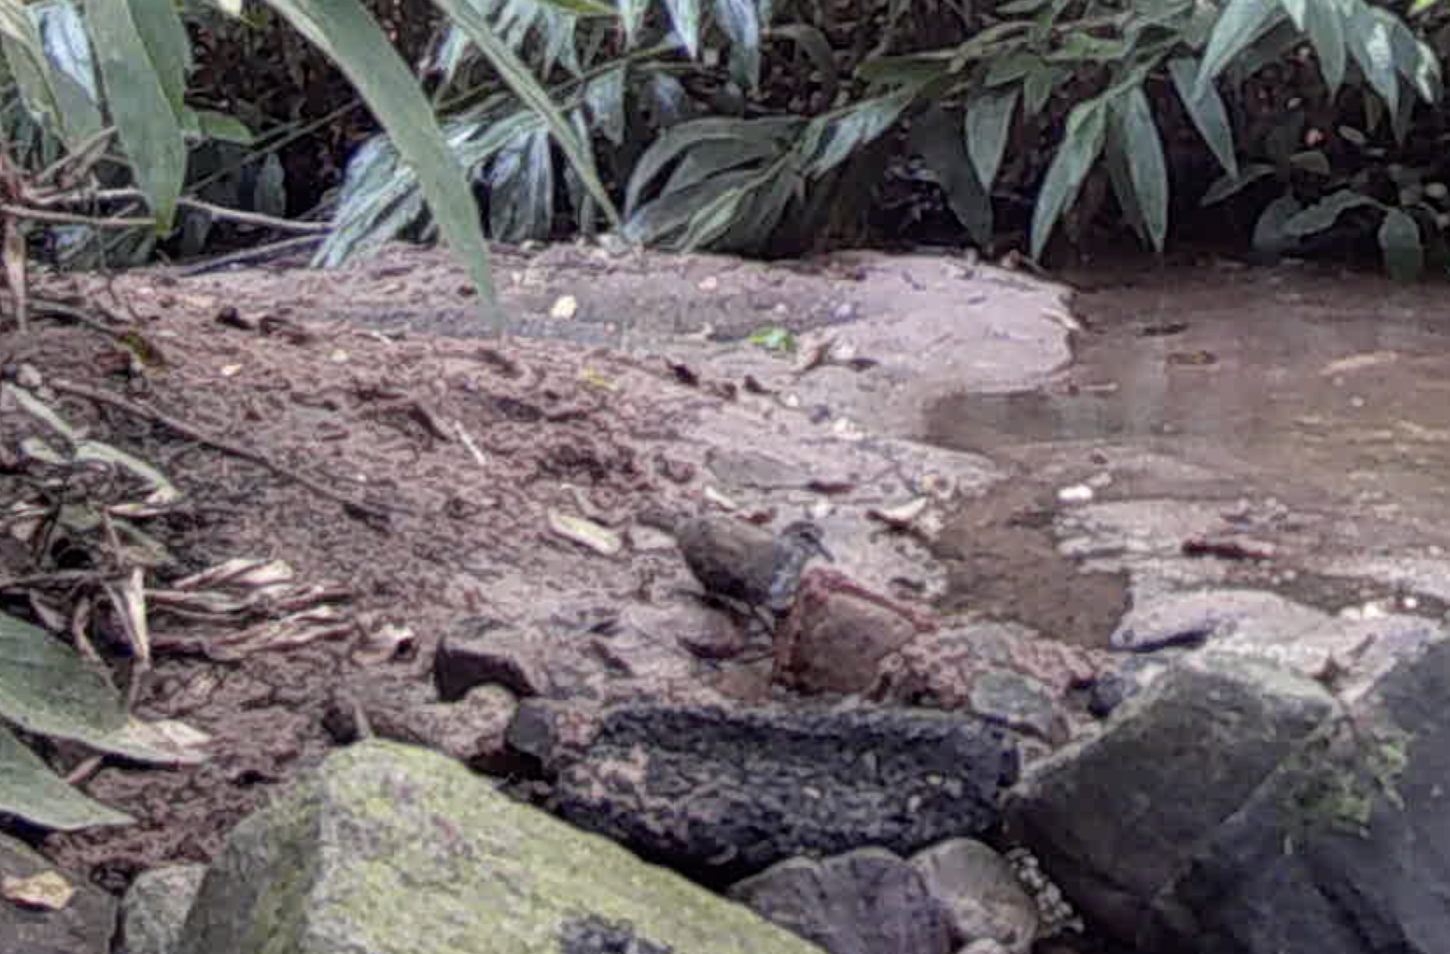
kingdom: Animalia
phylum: Chordata
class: Aves
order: Columbiformes
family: Columbidae
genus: Turtur
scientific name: Turtur tympanistria
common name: Tambourine dove
